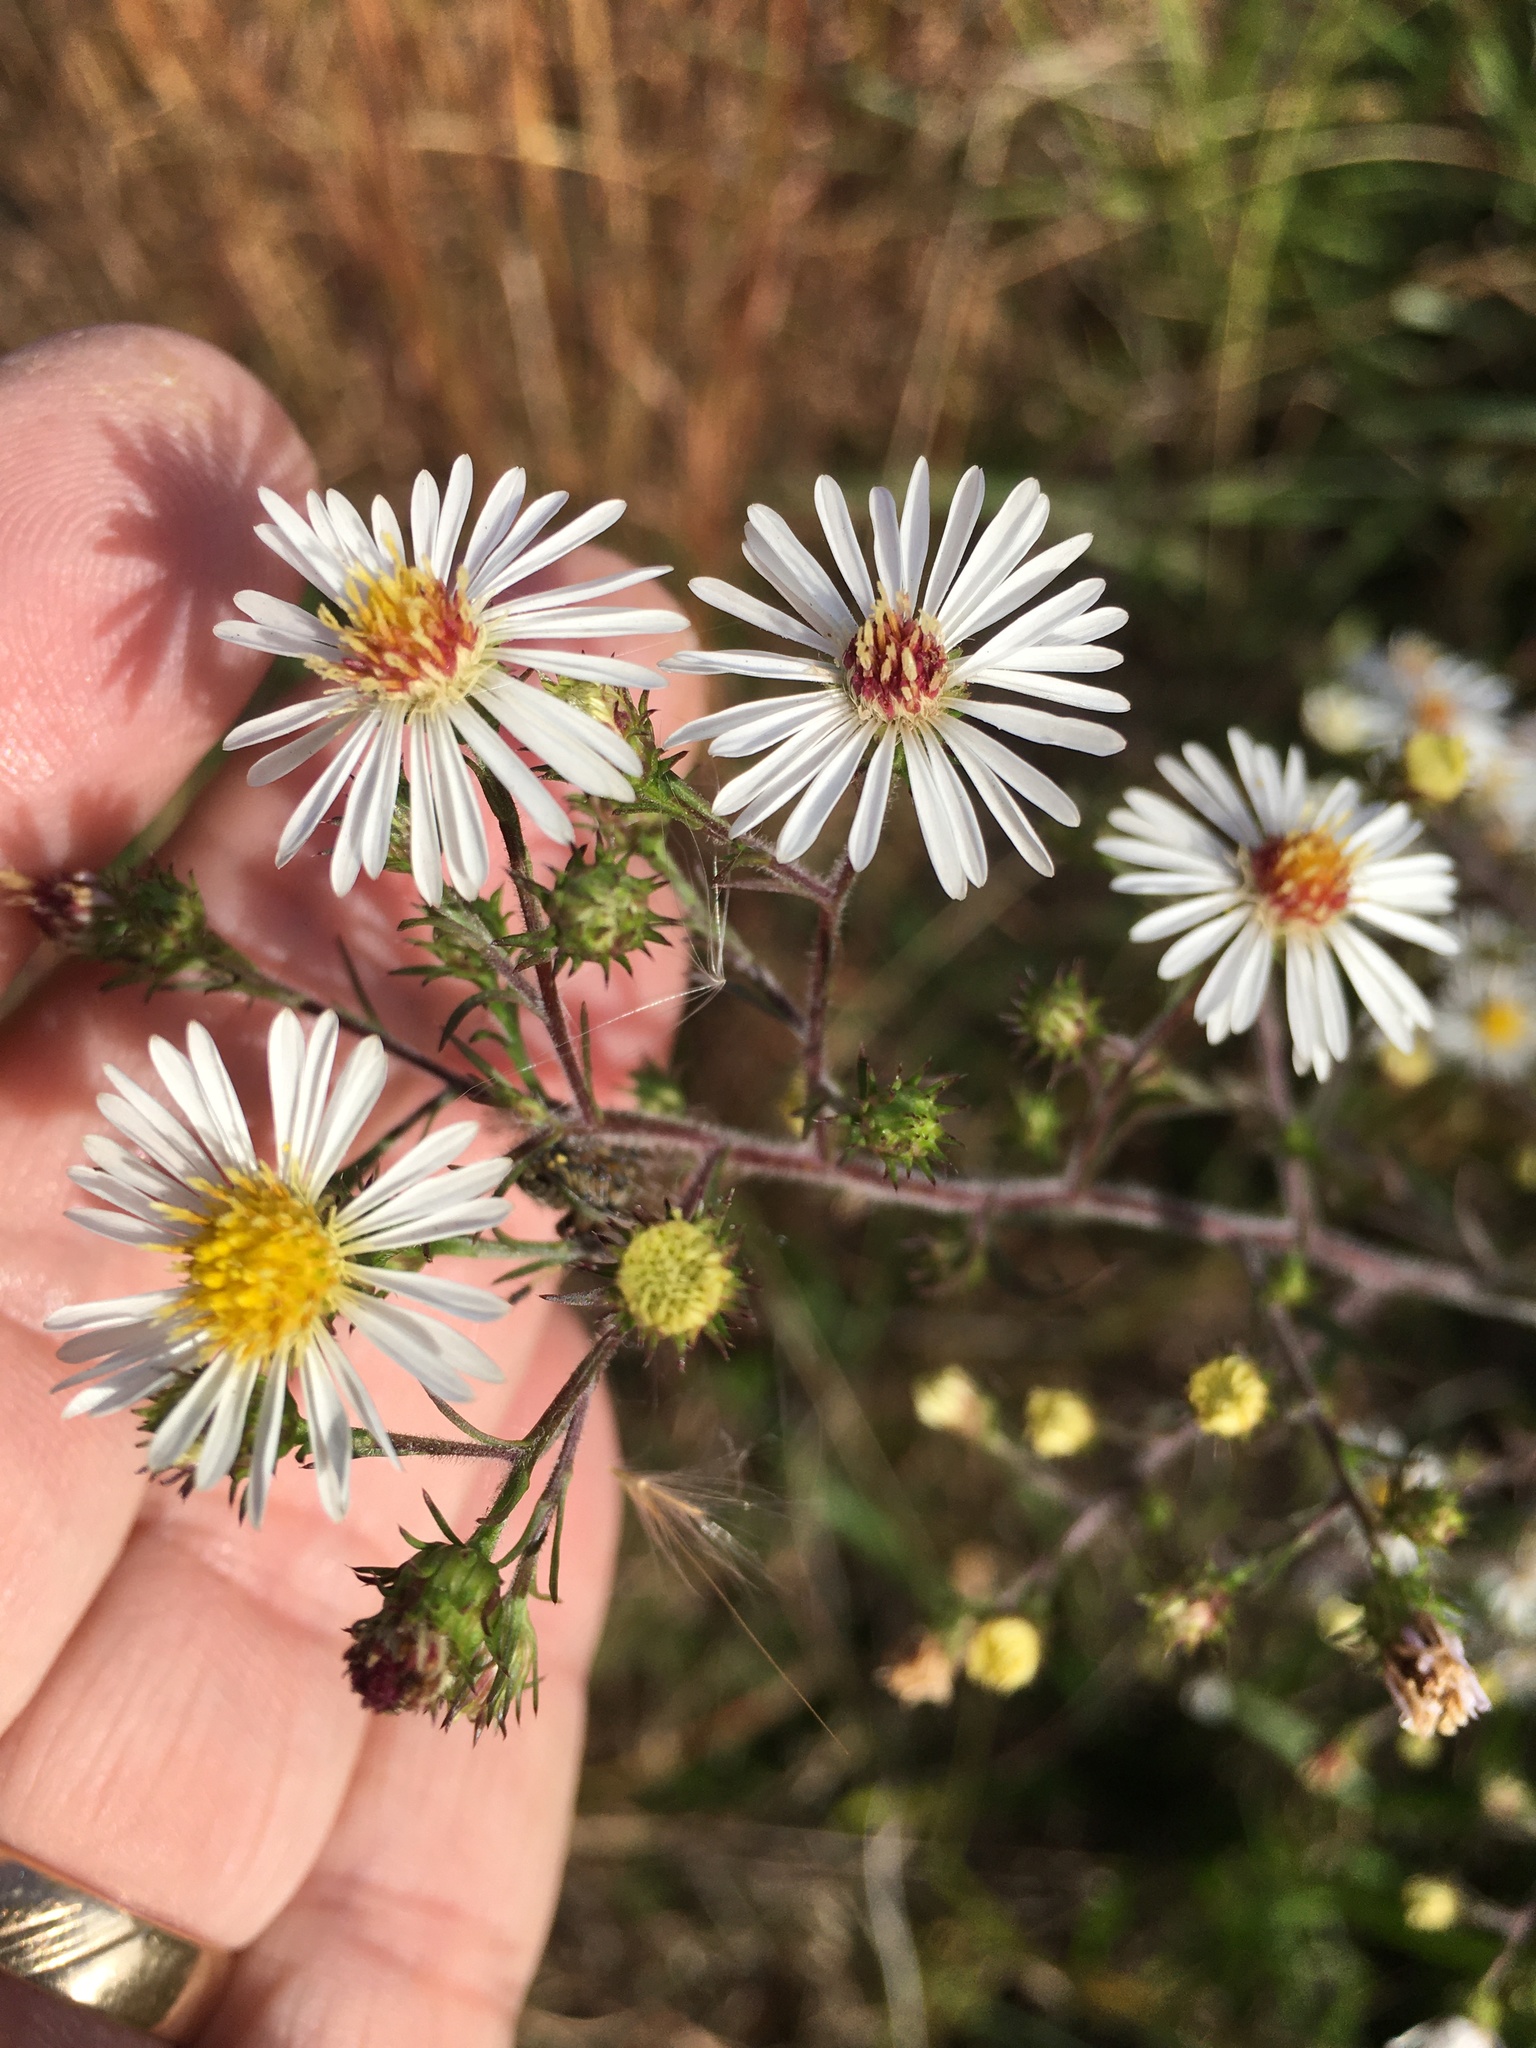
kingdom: Plantae
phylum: Tracheophyta
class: Magnoliopsida
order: Asterales
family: Asteraceae
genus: Symphyotrichum
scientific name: Symphyotrichum pilosum
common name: Awl aster
